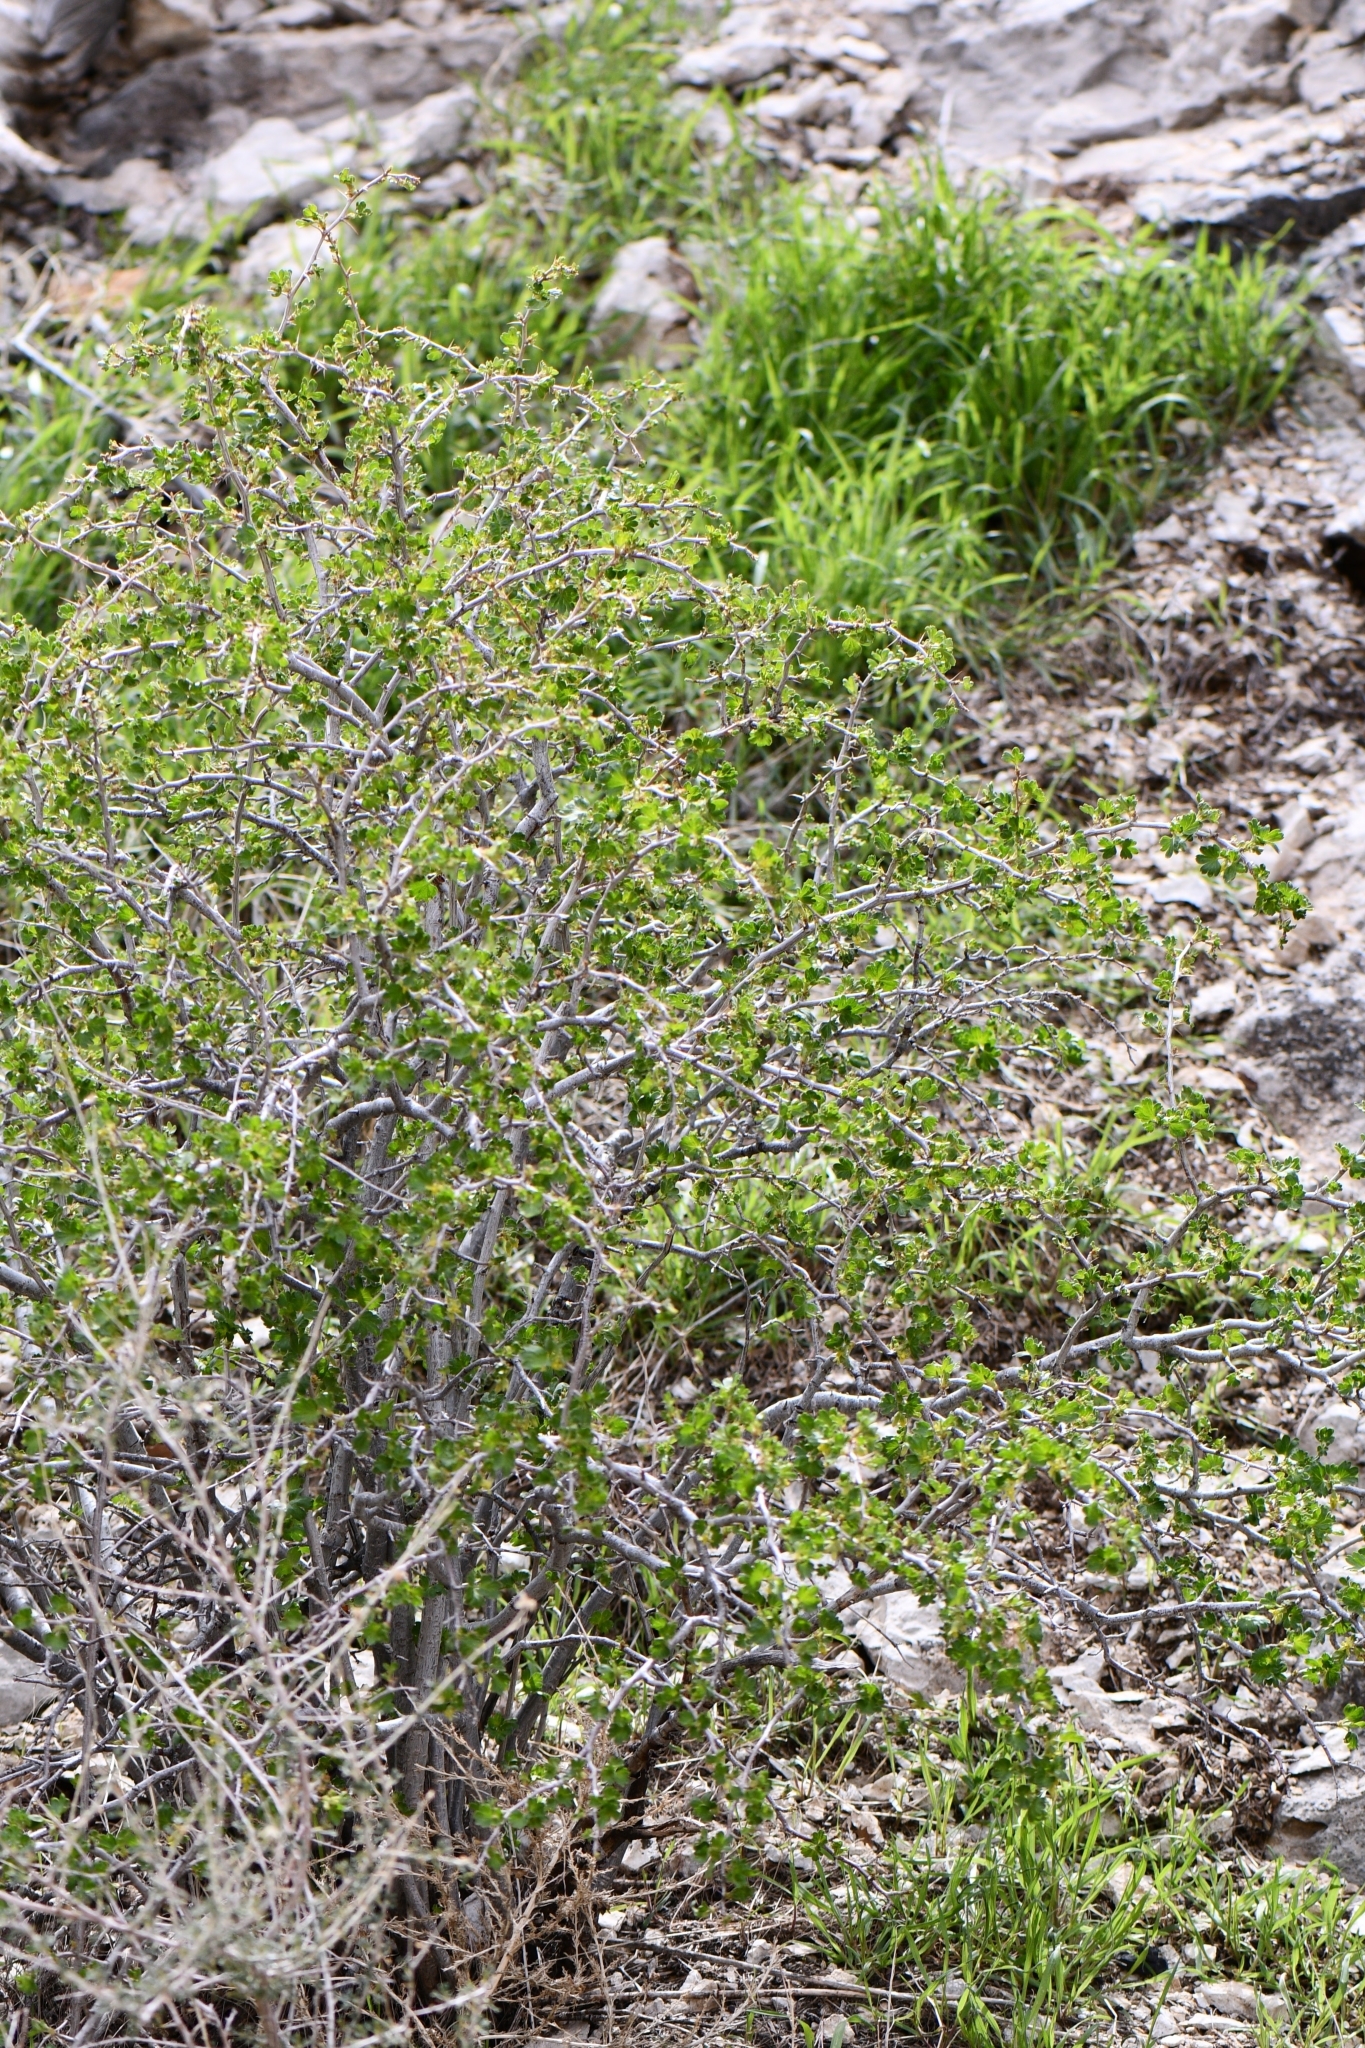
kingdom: Plantae
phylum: Tracheophyta
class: Magnoliopsida
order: Saxifragales
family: Grossulariaceae
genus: Ribes
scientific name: Ribes velutinum
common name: Desert gooseberry
